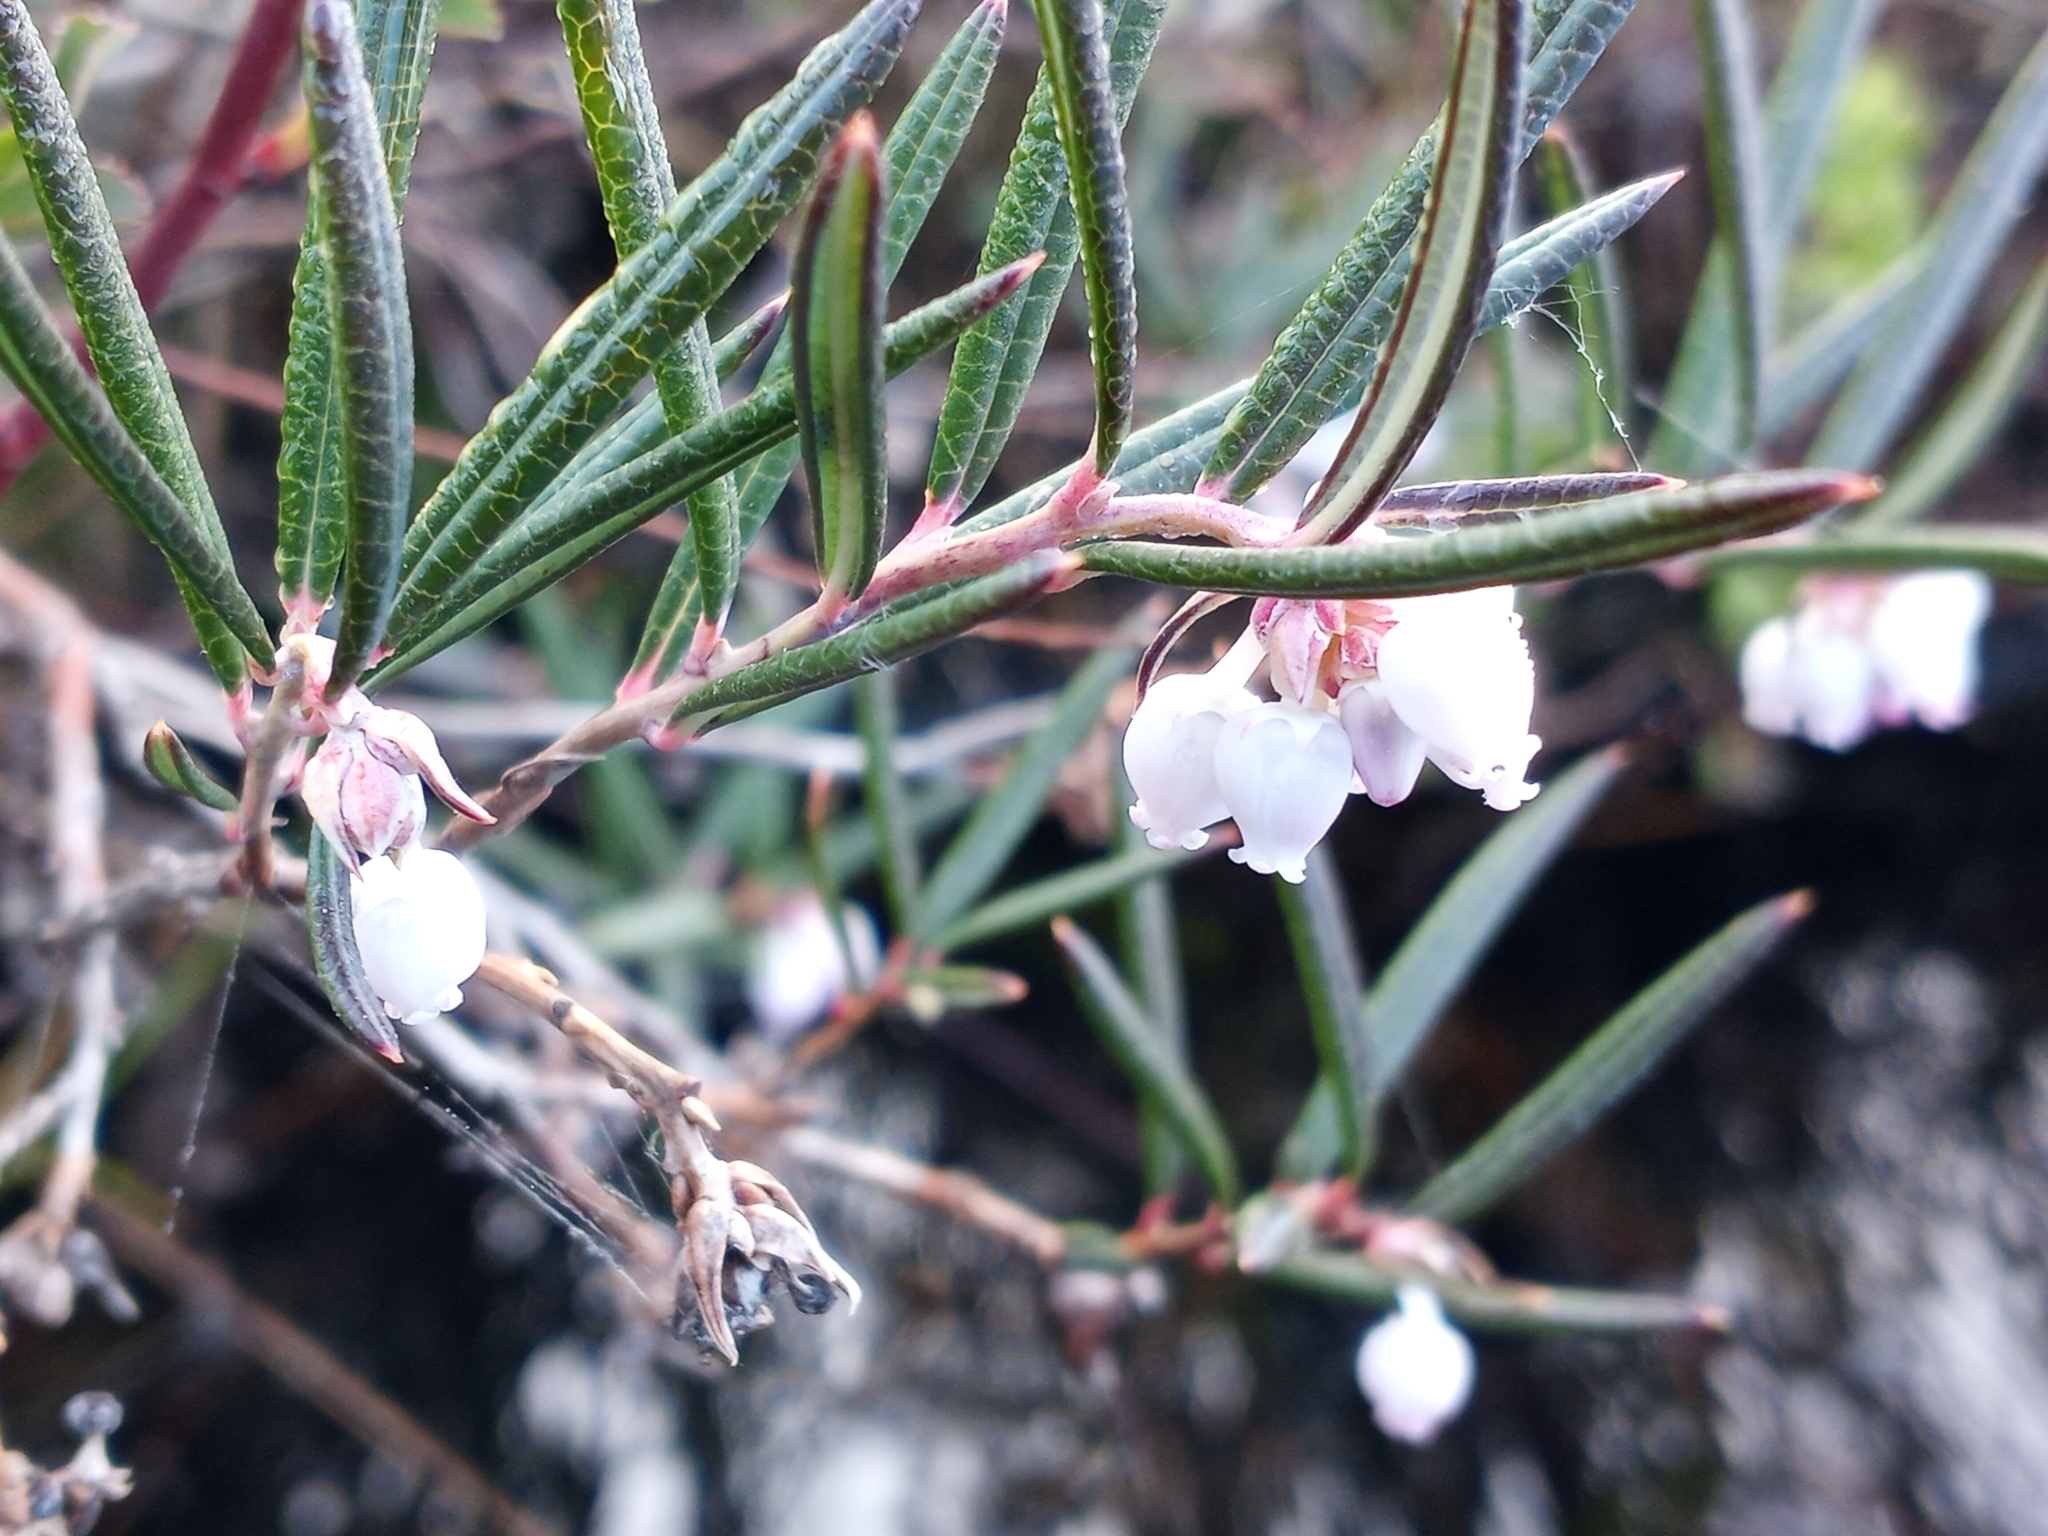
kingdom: Plantae
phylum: Tracheophyta
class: Magnoliopsida
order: Ericales
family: Ericaceae
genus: Andromeda
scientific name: Andromeda polifolia
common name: Bog-rosemary
